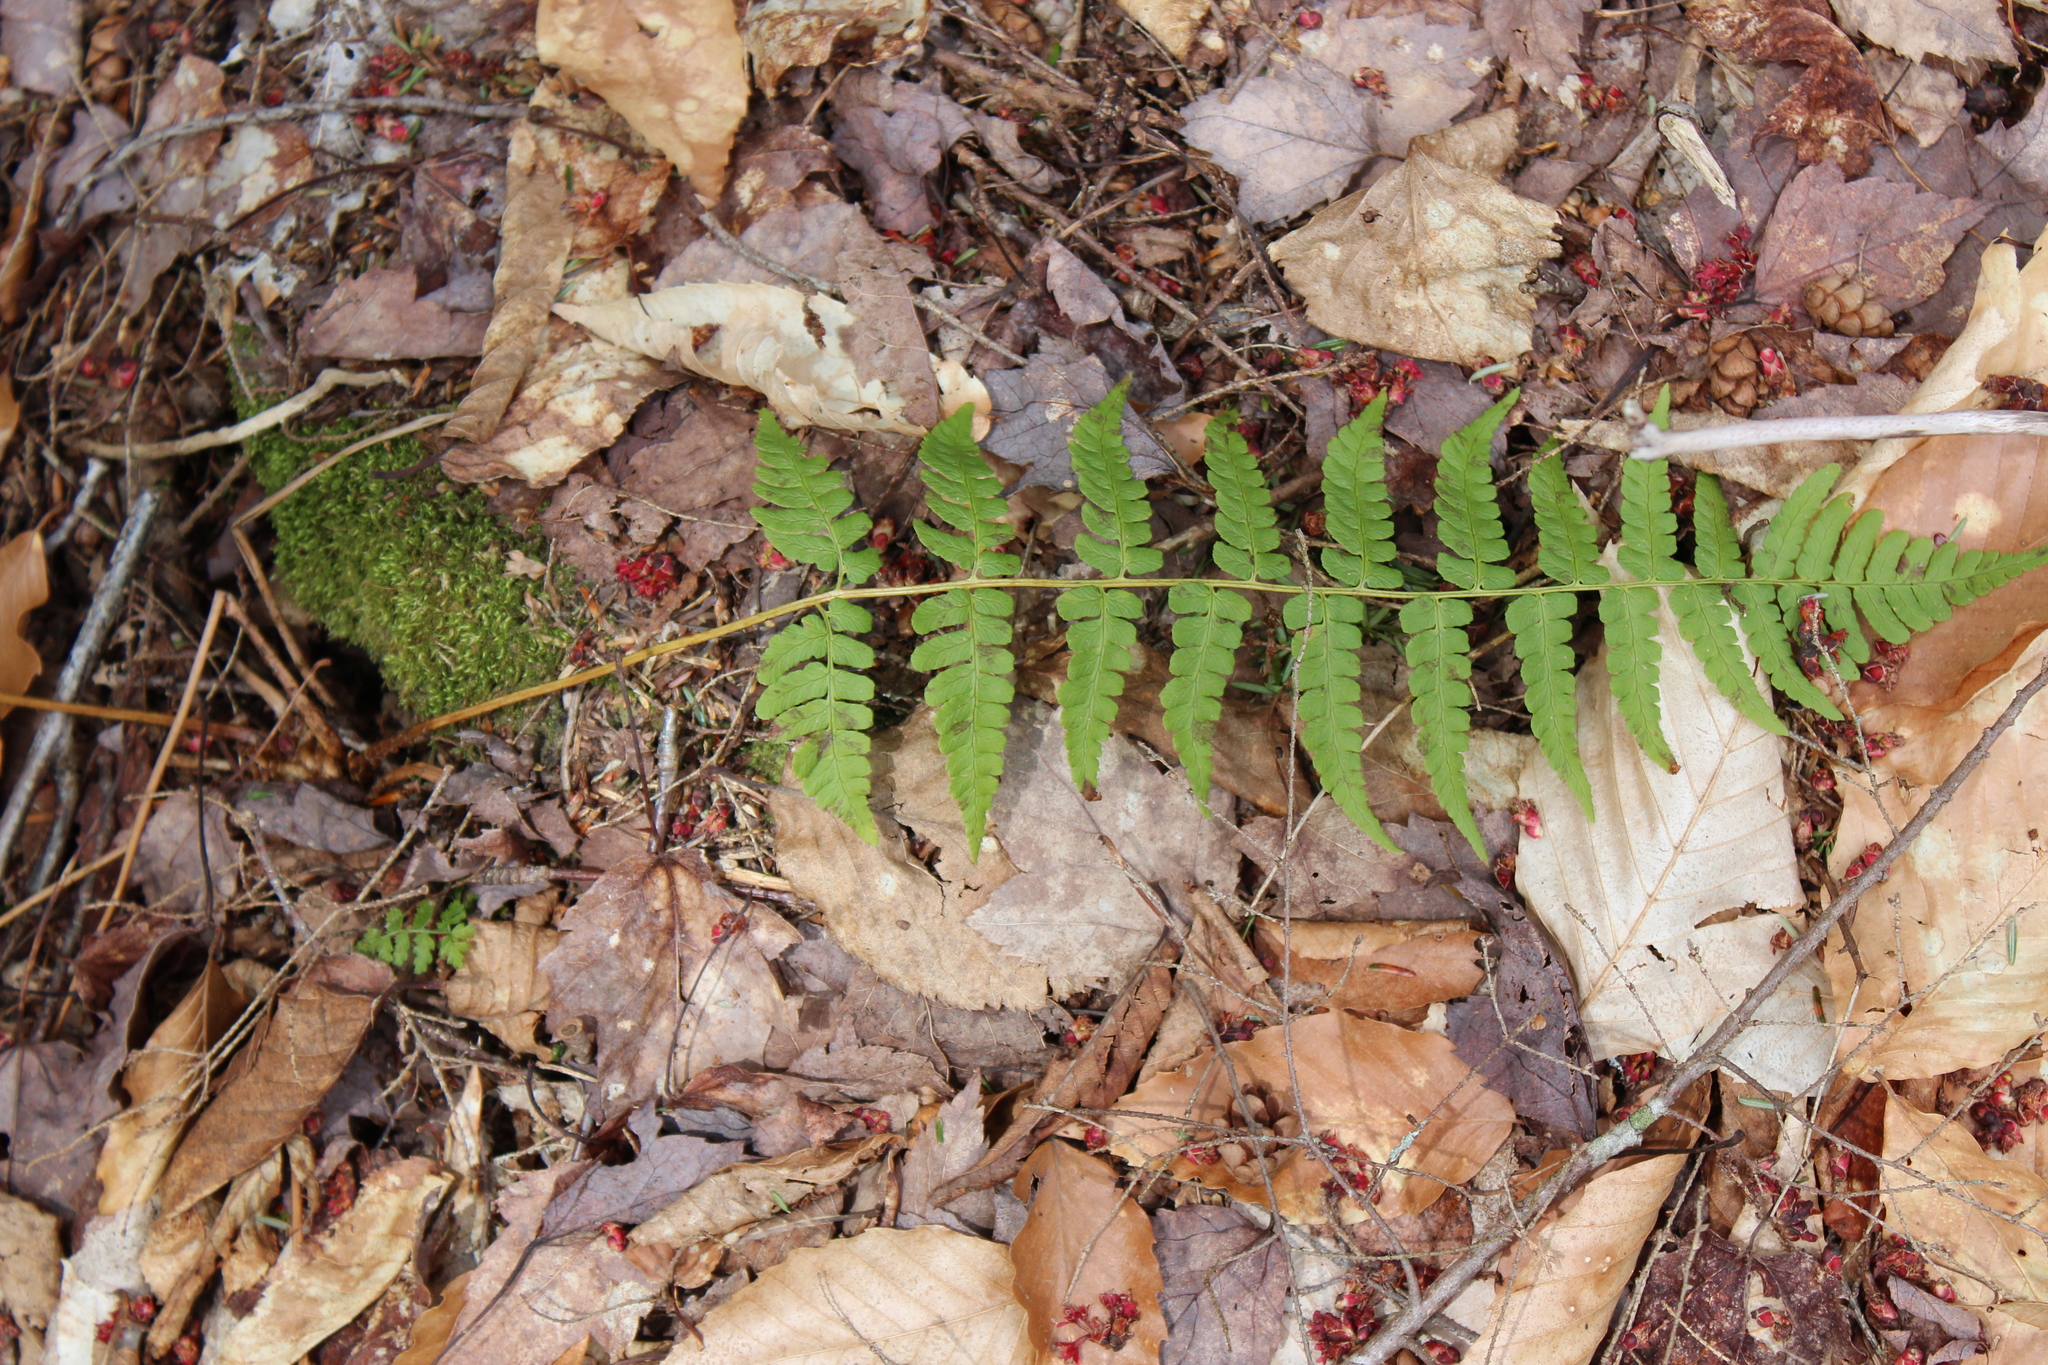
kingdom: Plantae
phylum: Tracheophyta
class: Polypodiopsida
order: Polypodiales
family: Dryopteridaceae
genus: Dryopteris
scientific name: Dryopteris marginalis
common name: Marginal wood fern
